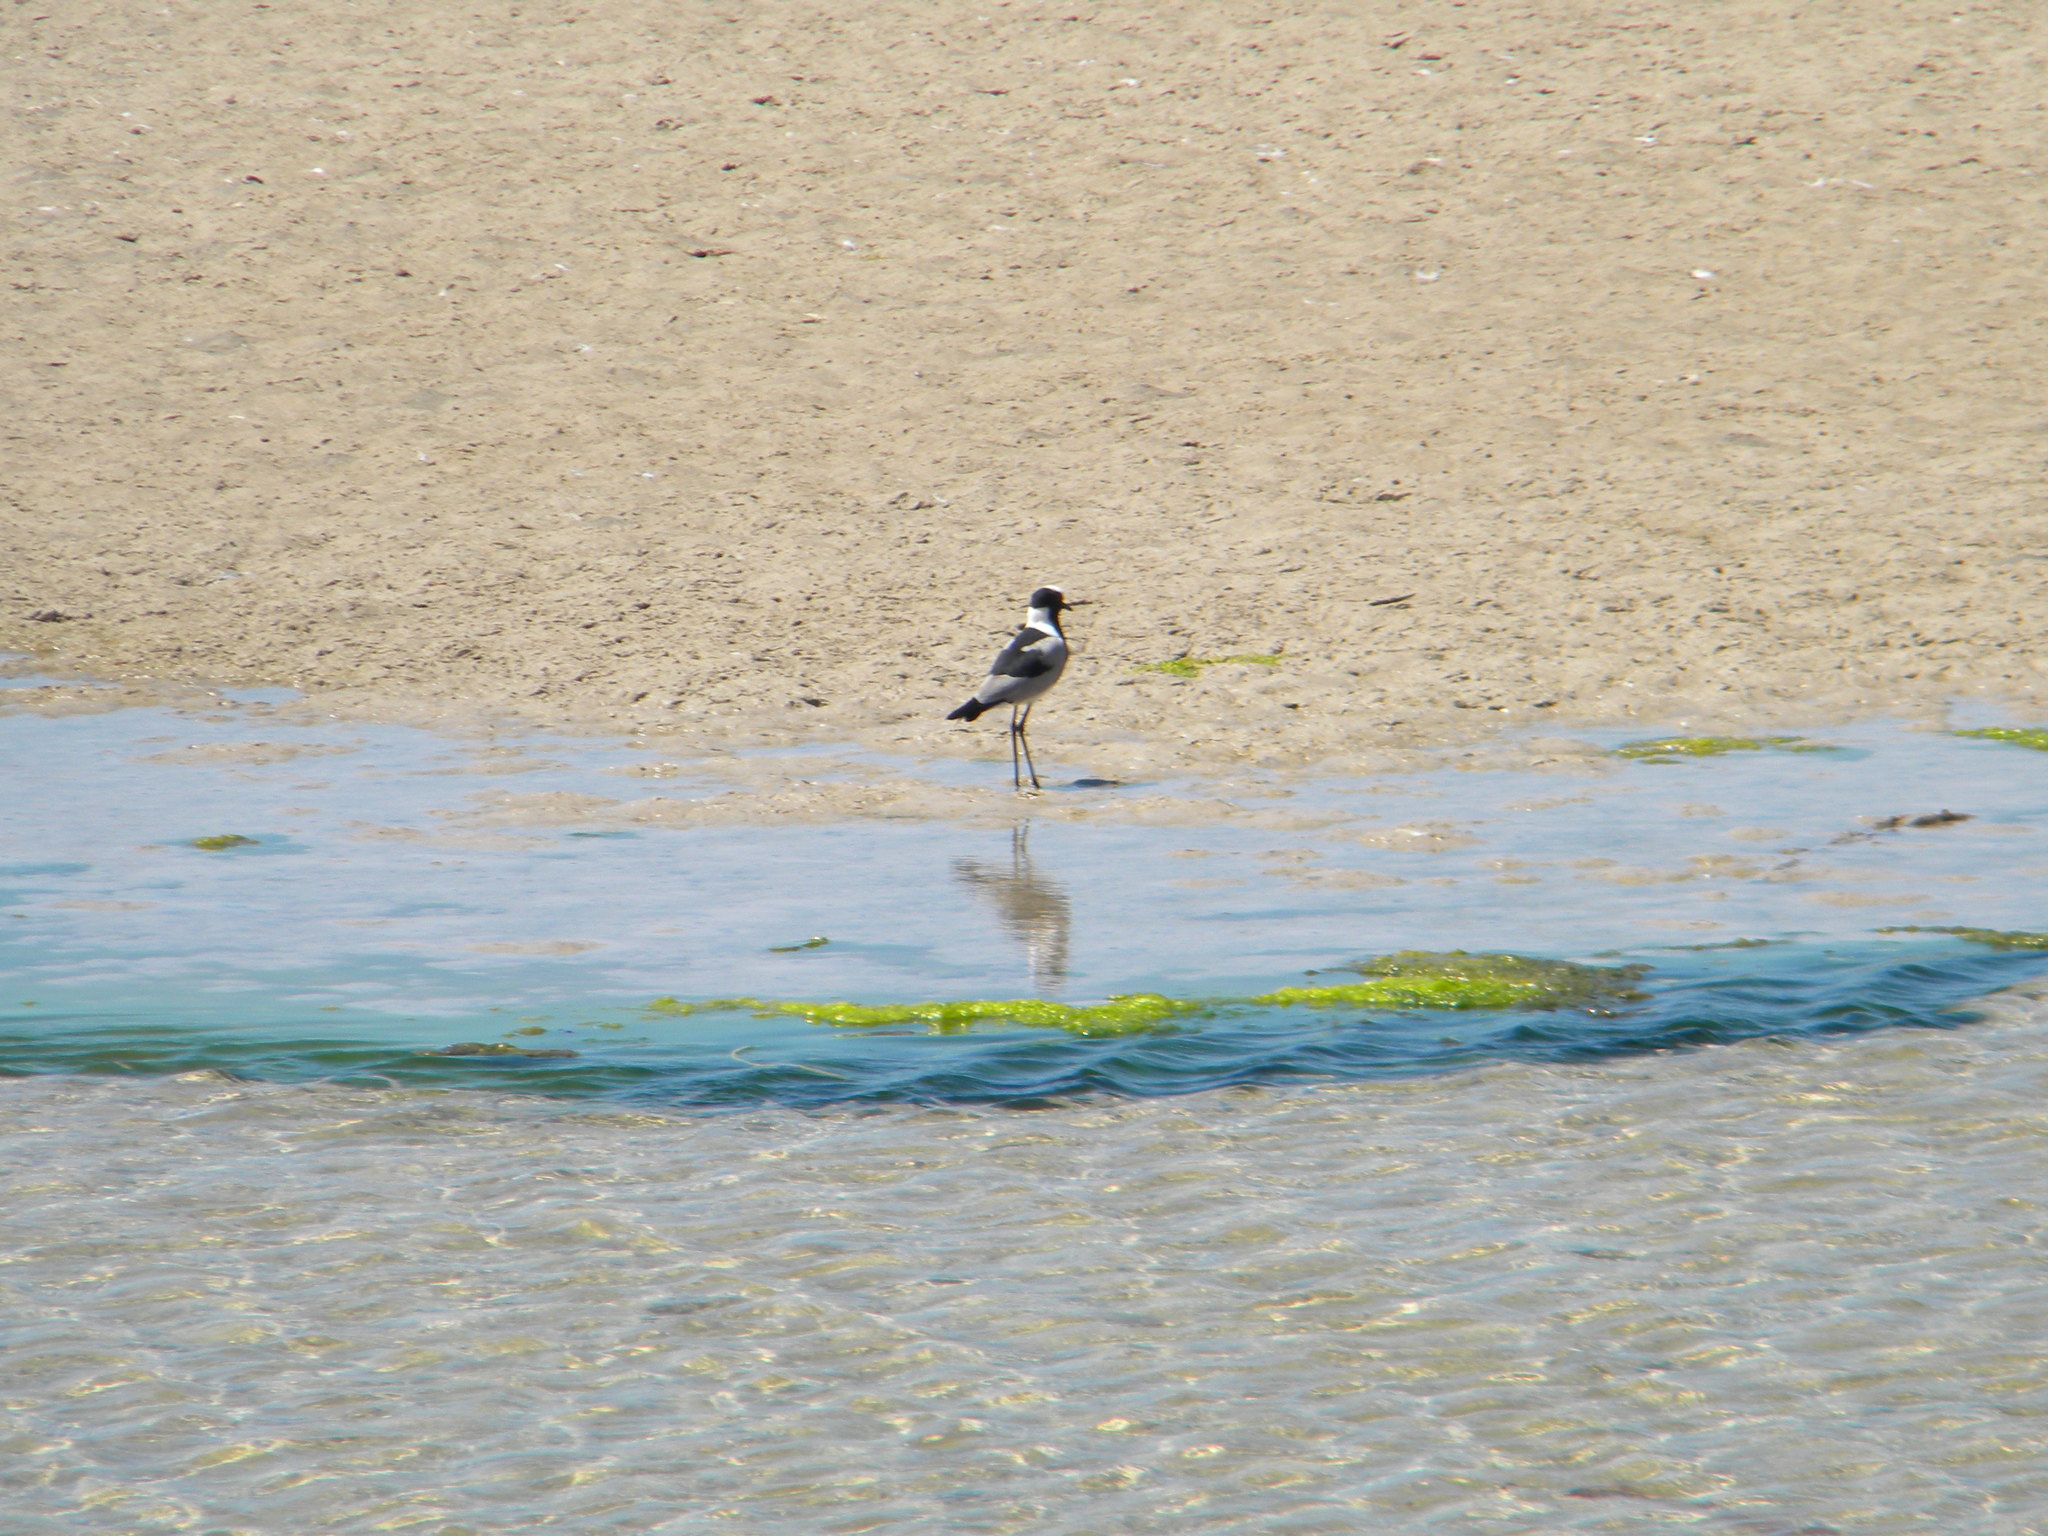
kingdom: Animalia
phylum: Chordata
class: Aves
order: Charadriiformes
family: Charadriidae
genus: Vanellus
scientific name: Vanellus armatus
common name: Blacksmith lapwing
